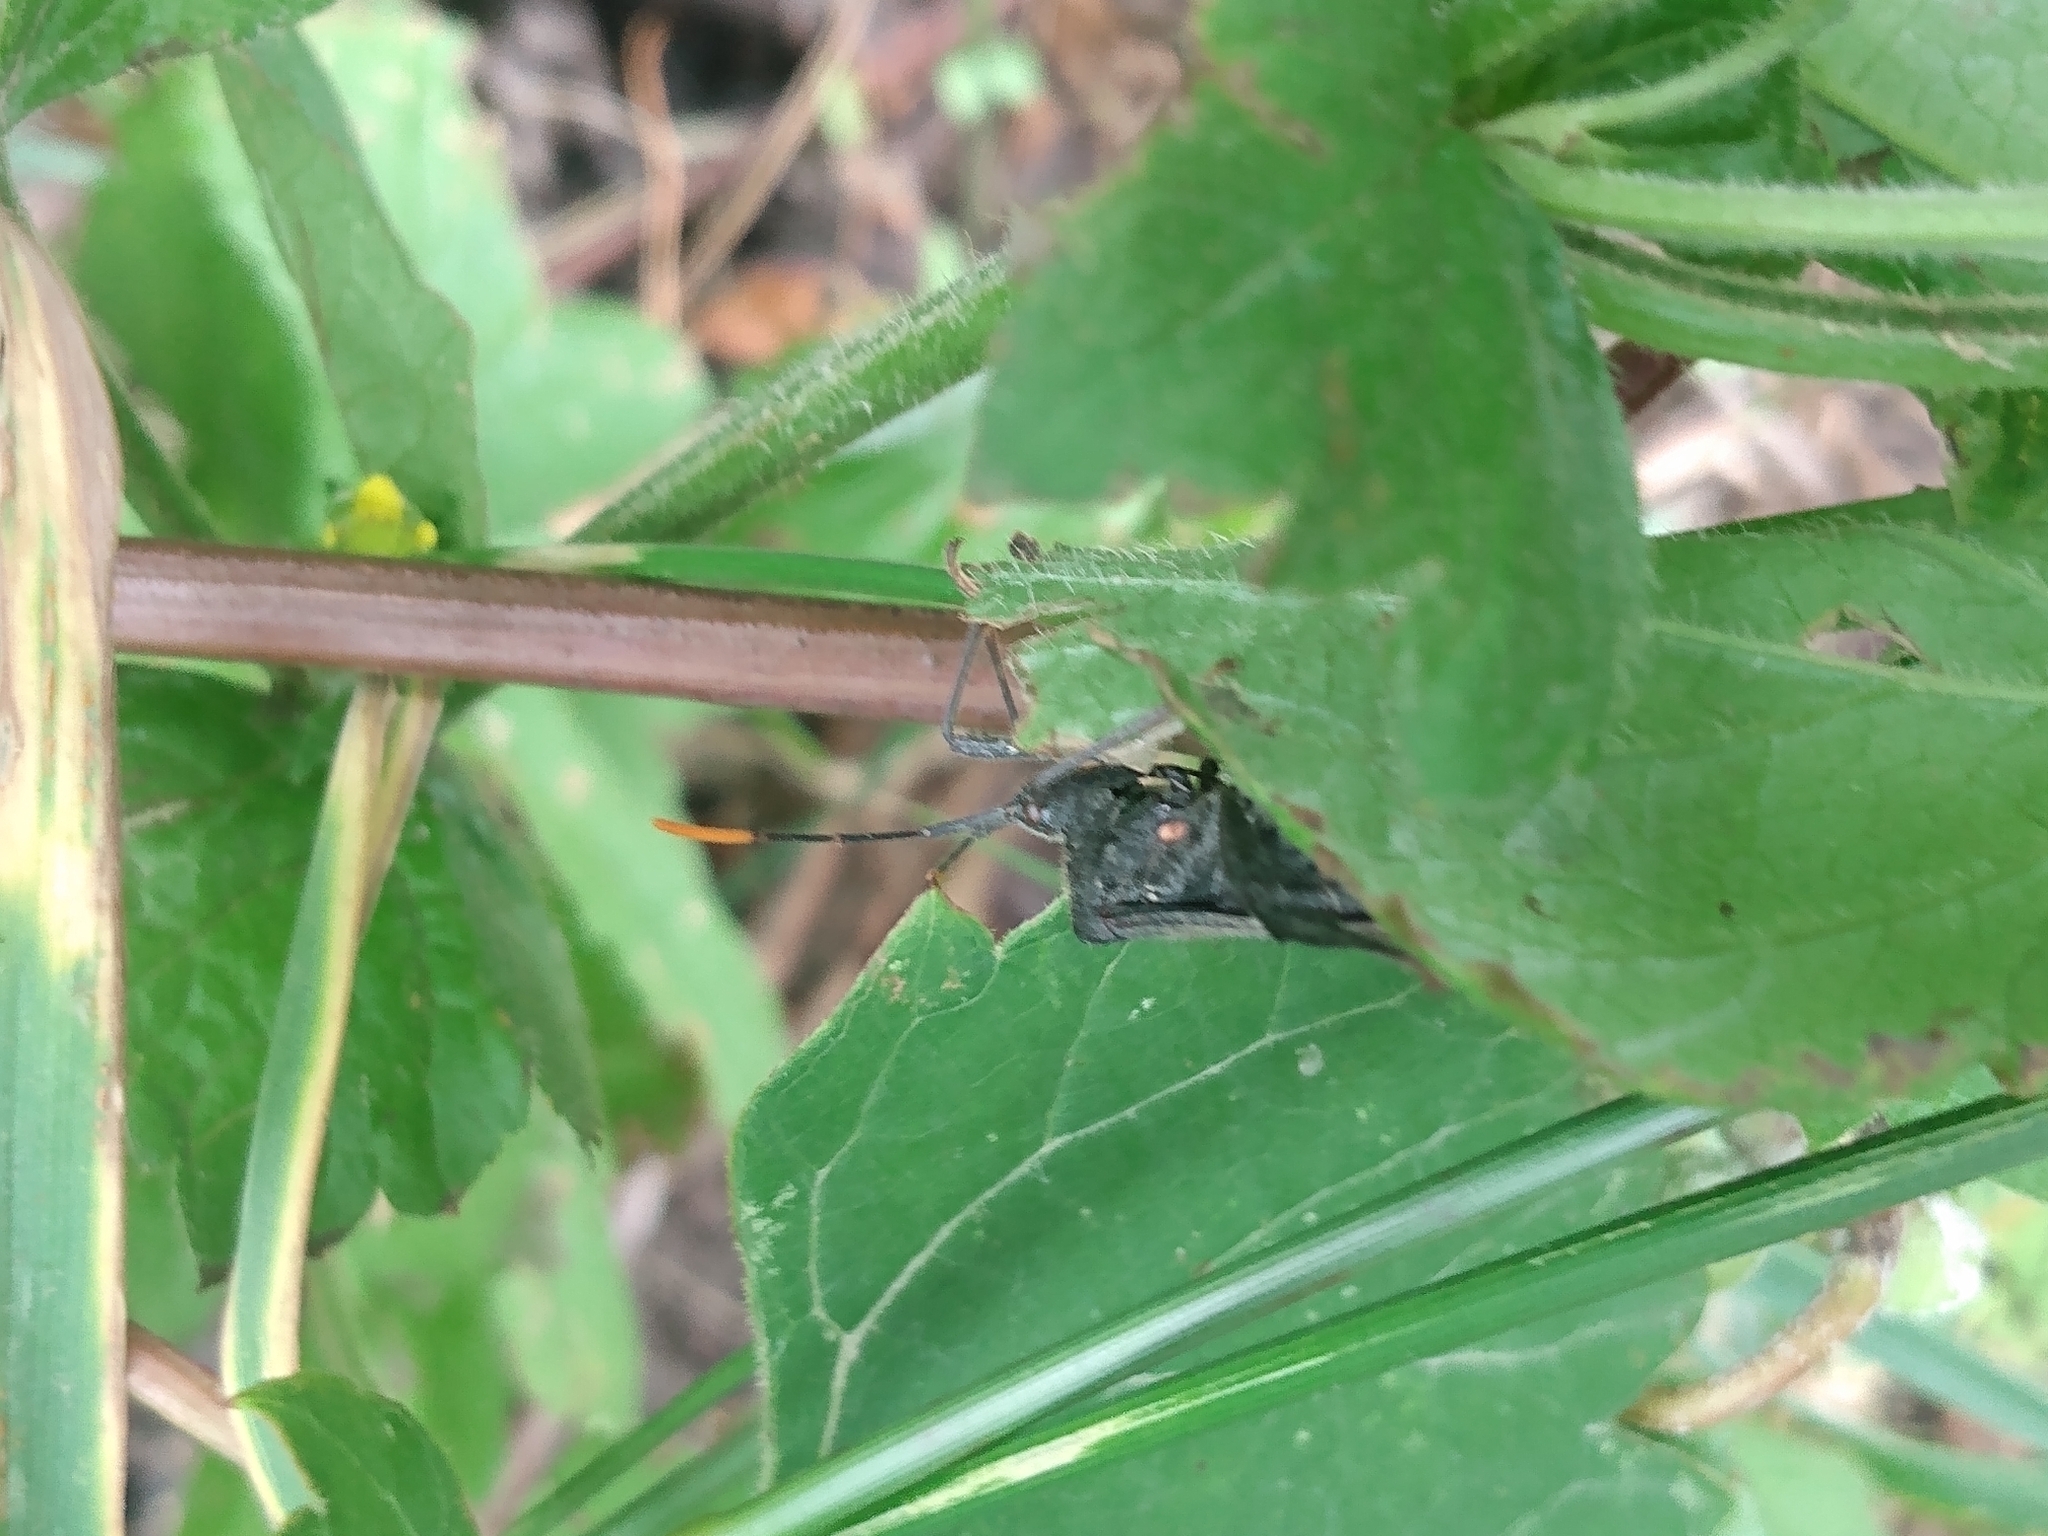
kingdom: Animalia
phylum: Arthropoda
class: Insecta
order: Hemiptera
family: Coreidae
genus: Acanthocephala
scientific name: Acanthocephala terminalis
